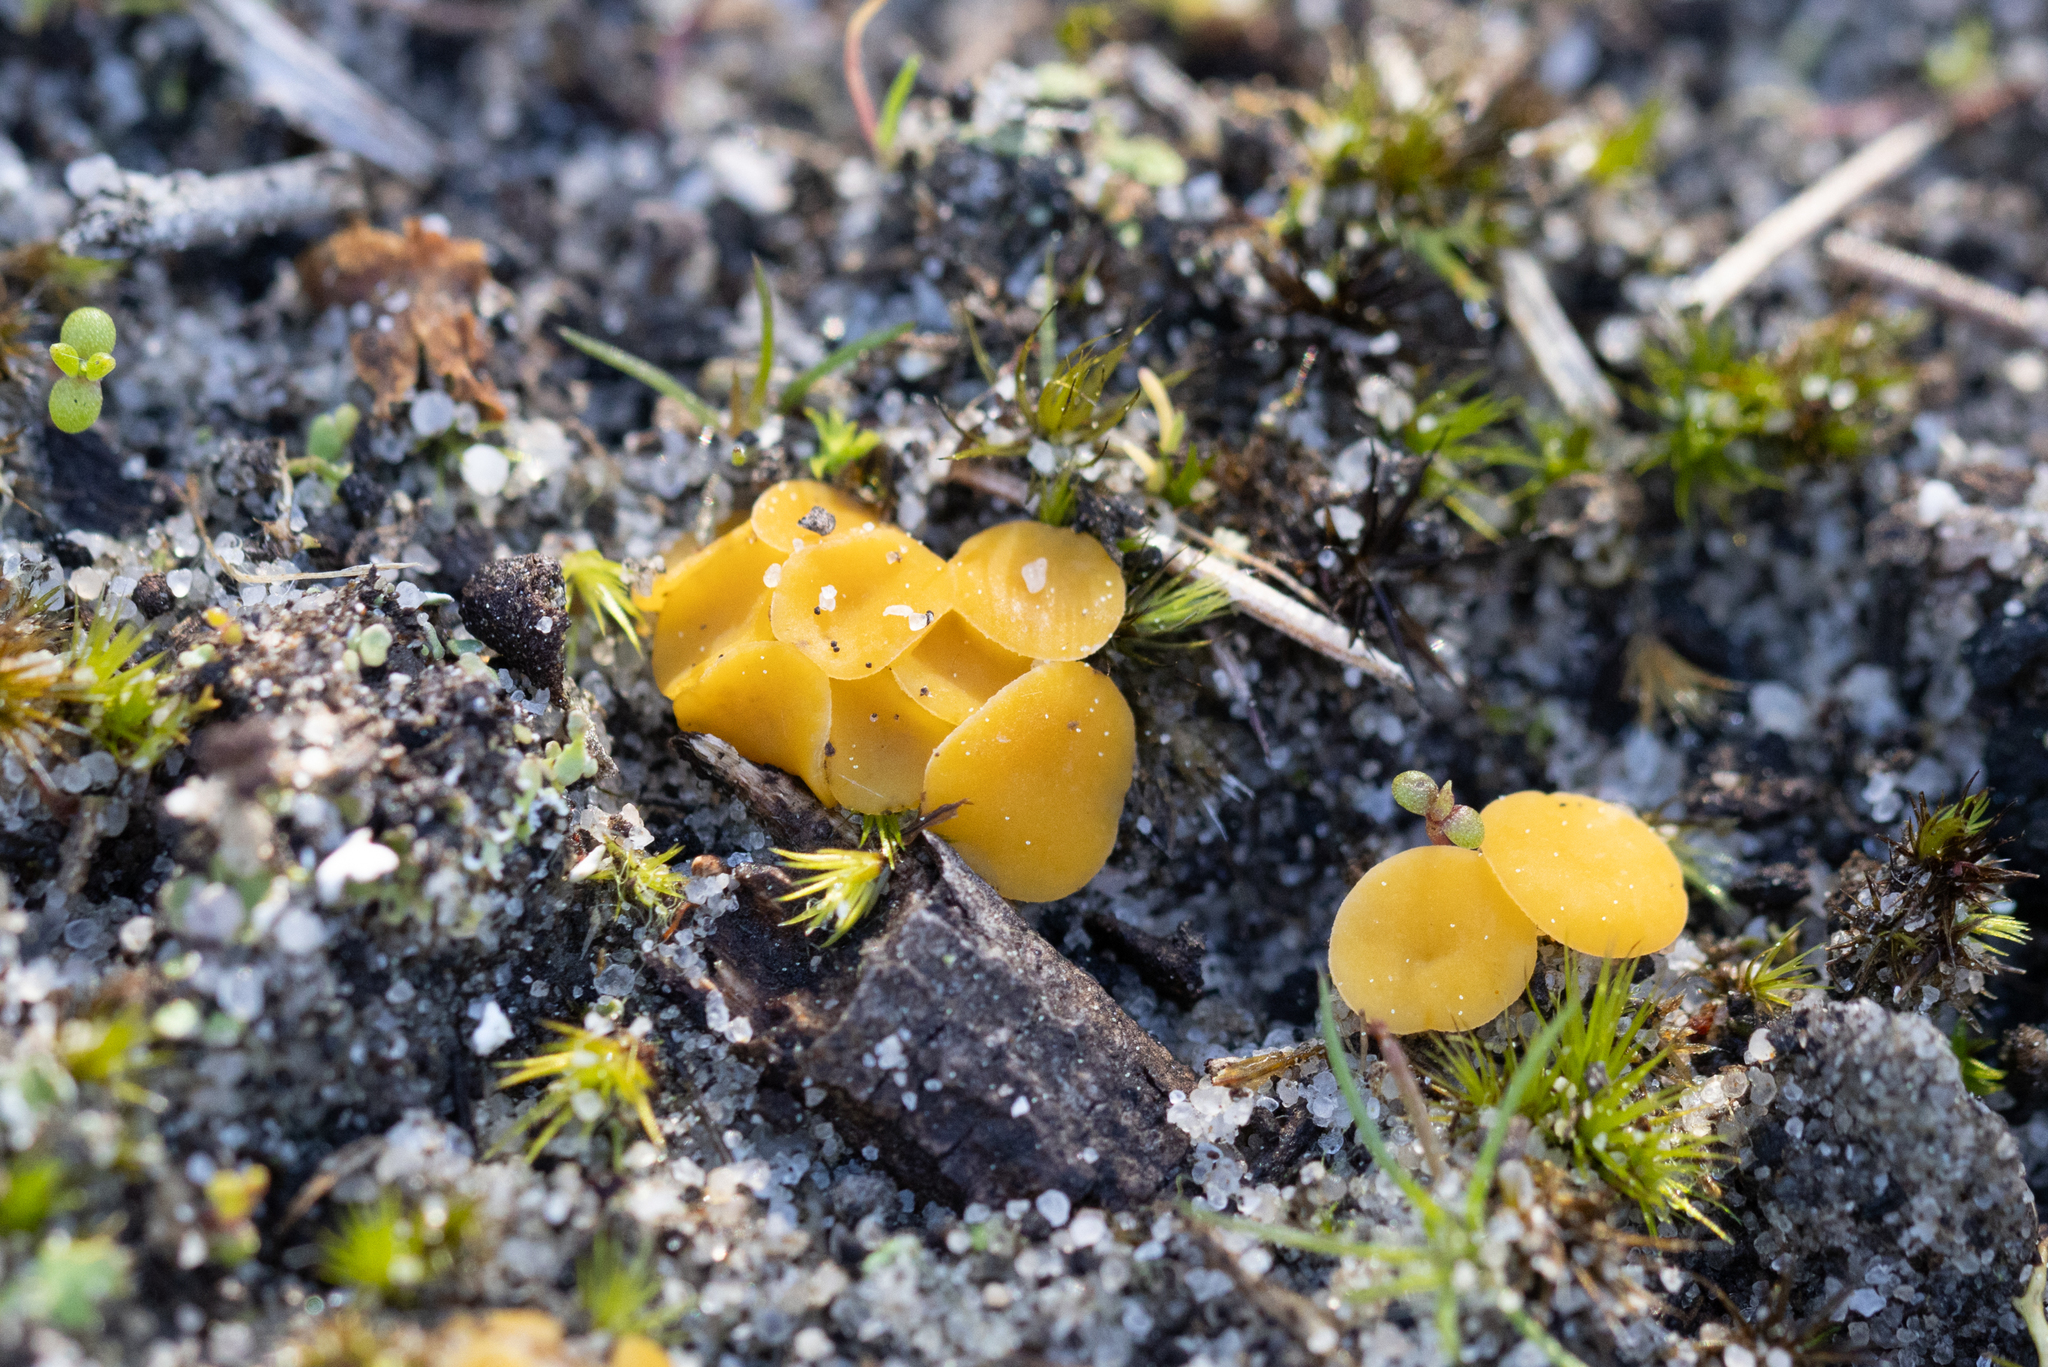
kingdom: Fungi
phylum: Ascomycota
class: Leotiomycetes
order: Helotiales
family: Helotiaceae
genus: Phaeohelotium
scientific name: Phaeohelotium baileyanum
